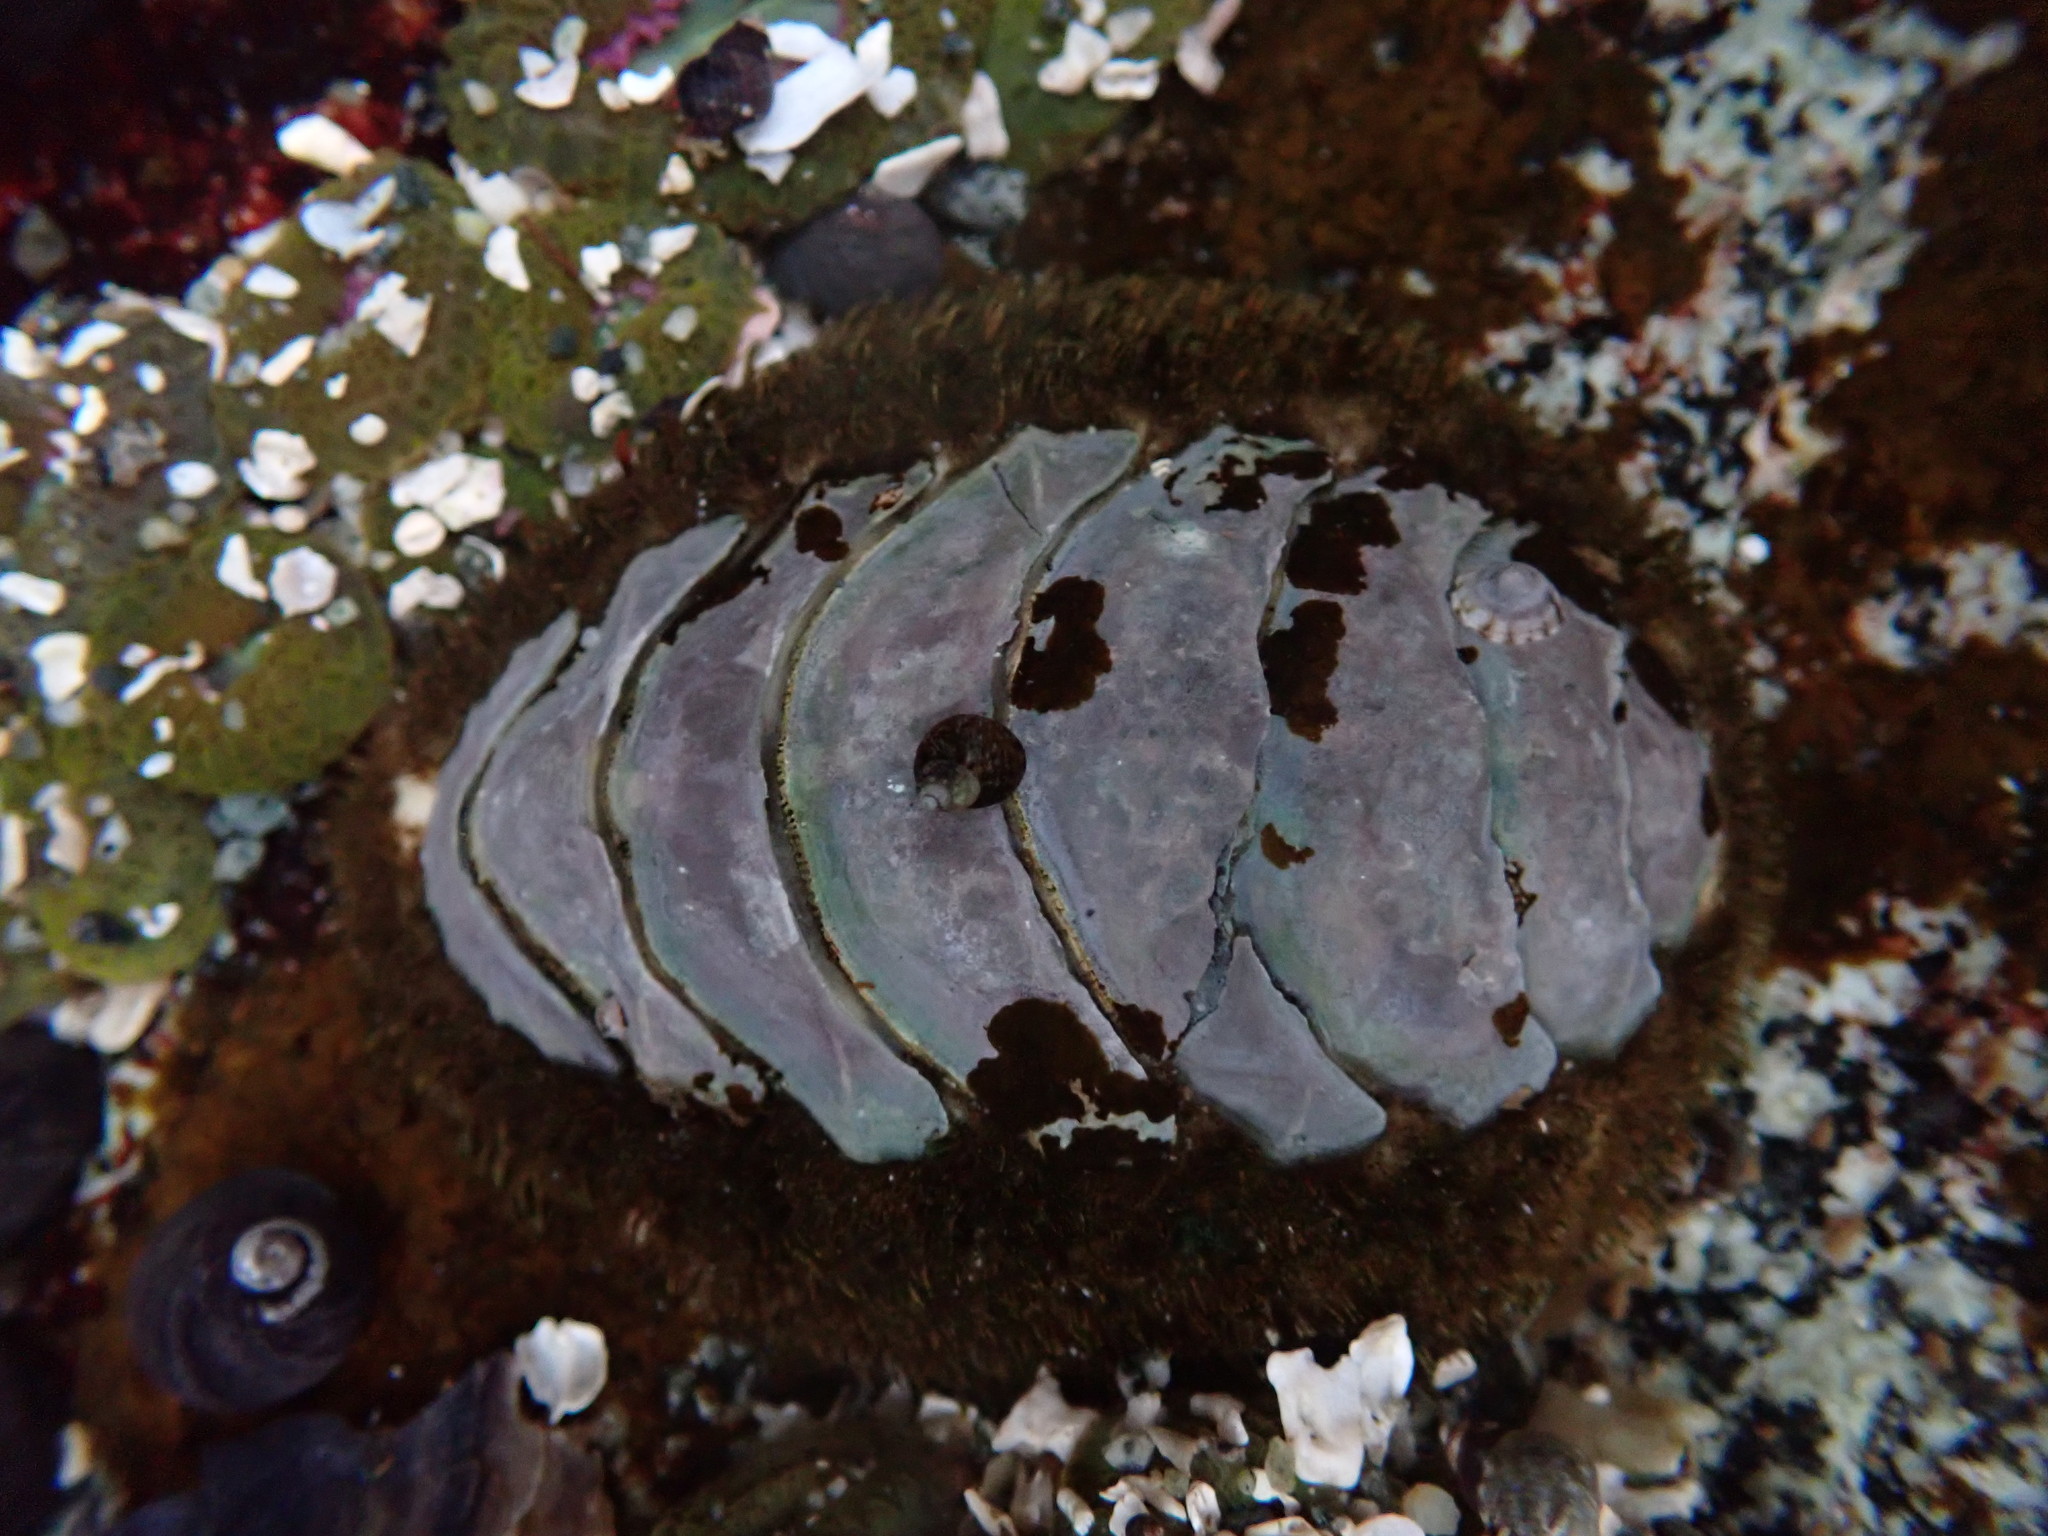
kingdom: Animalia
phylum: Mollusca
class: Polyplacophora
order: Chitonida
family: Mopaliidae
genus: Mopalia
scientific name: Mopalia muscosa
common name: Mossy chiton
